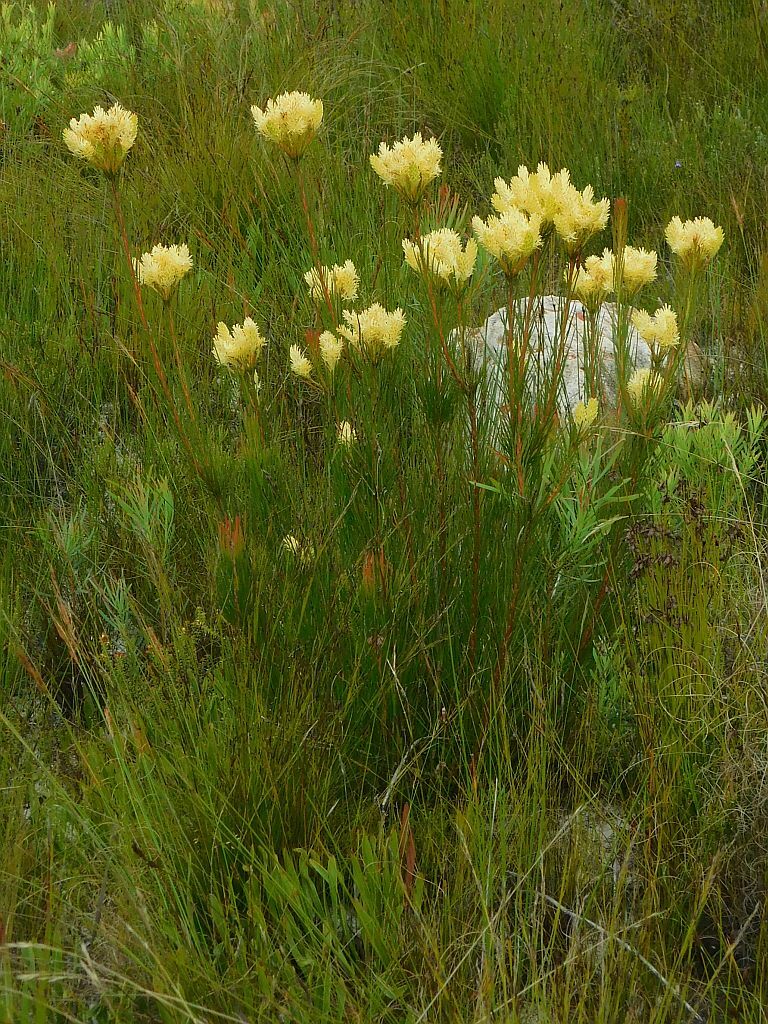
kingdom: Plantae
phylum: Tracheophyta
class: Magnoliopsida
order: Proteales
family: Proteaceae
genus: Aulax
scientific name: Aulax pallasia
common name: Needle-leaf featherbush
